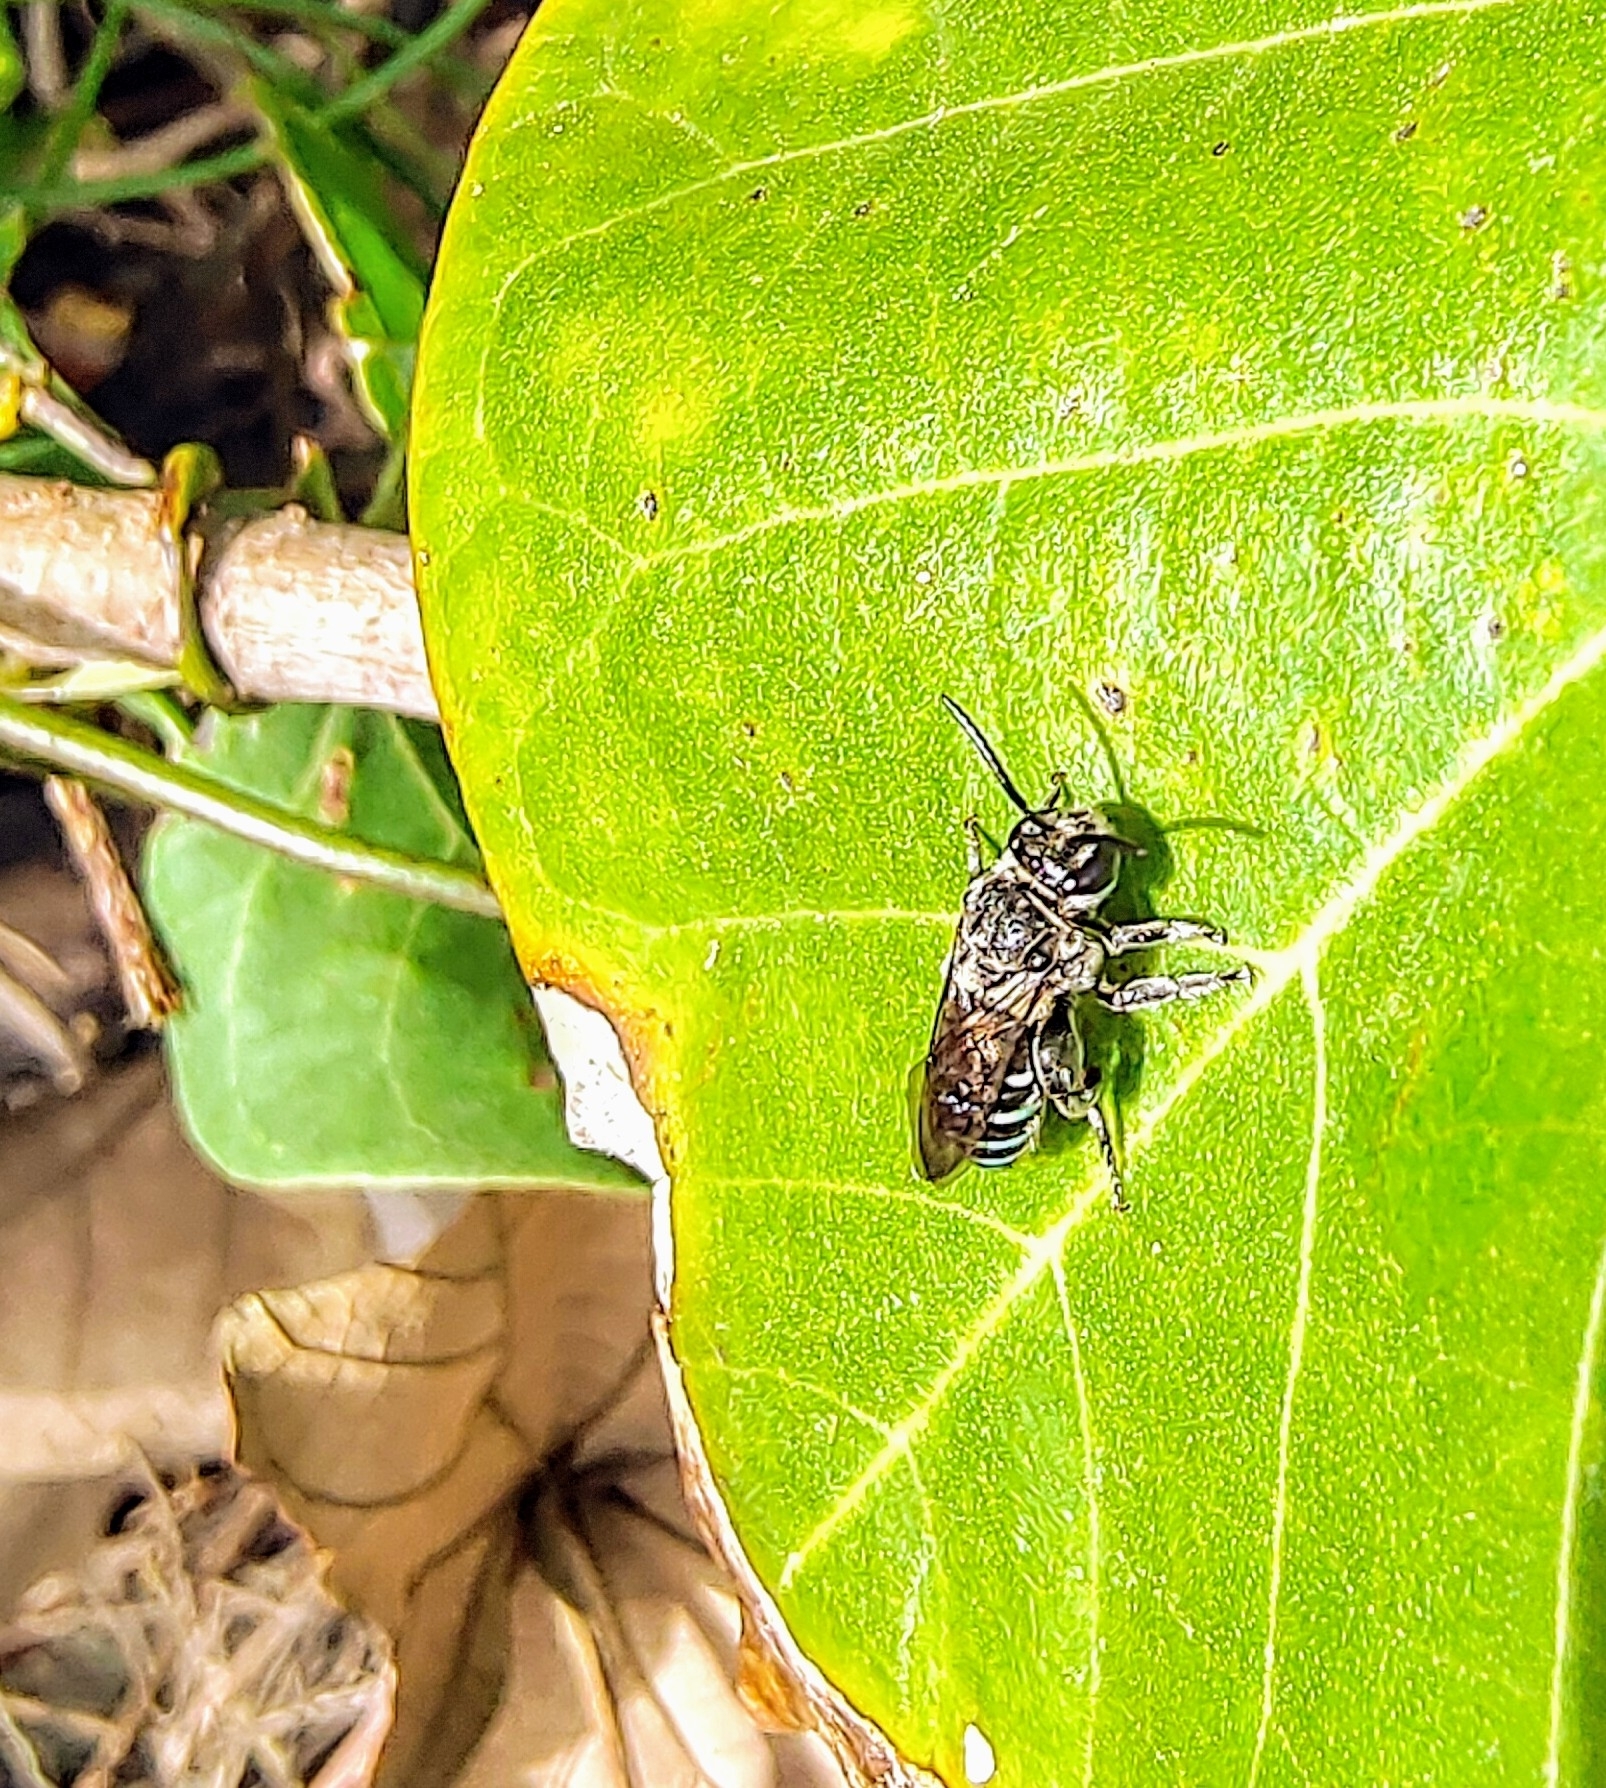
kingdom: Animalia
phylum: Arthropoda
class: Insecta
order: Hymenoptera
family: Halictidae
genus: Nomia
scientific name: Nomia incerta
